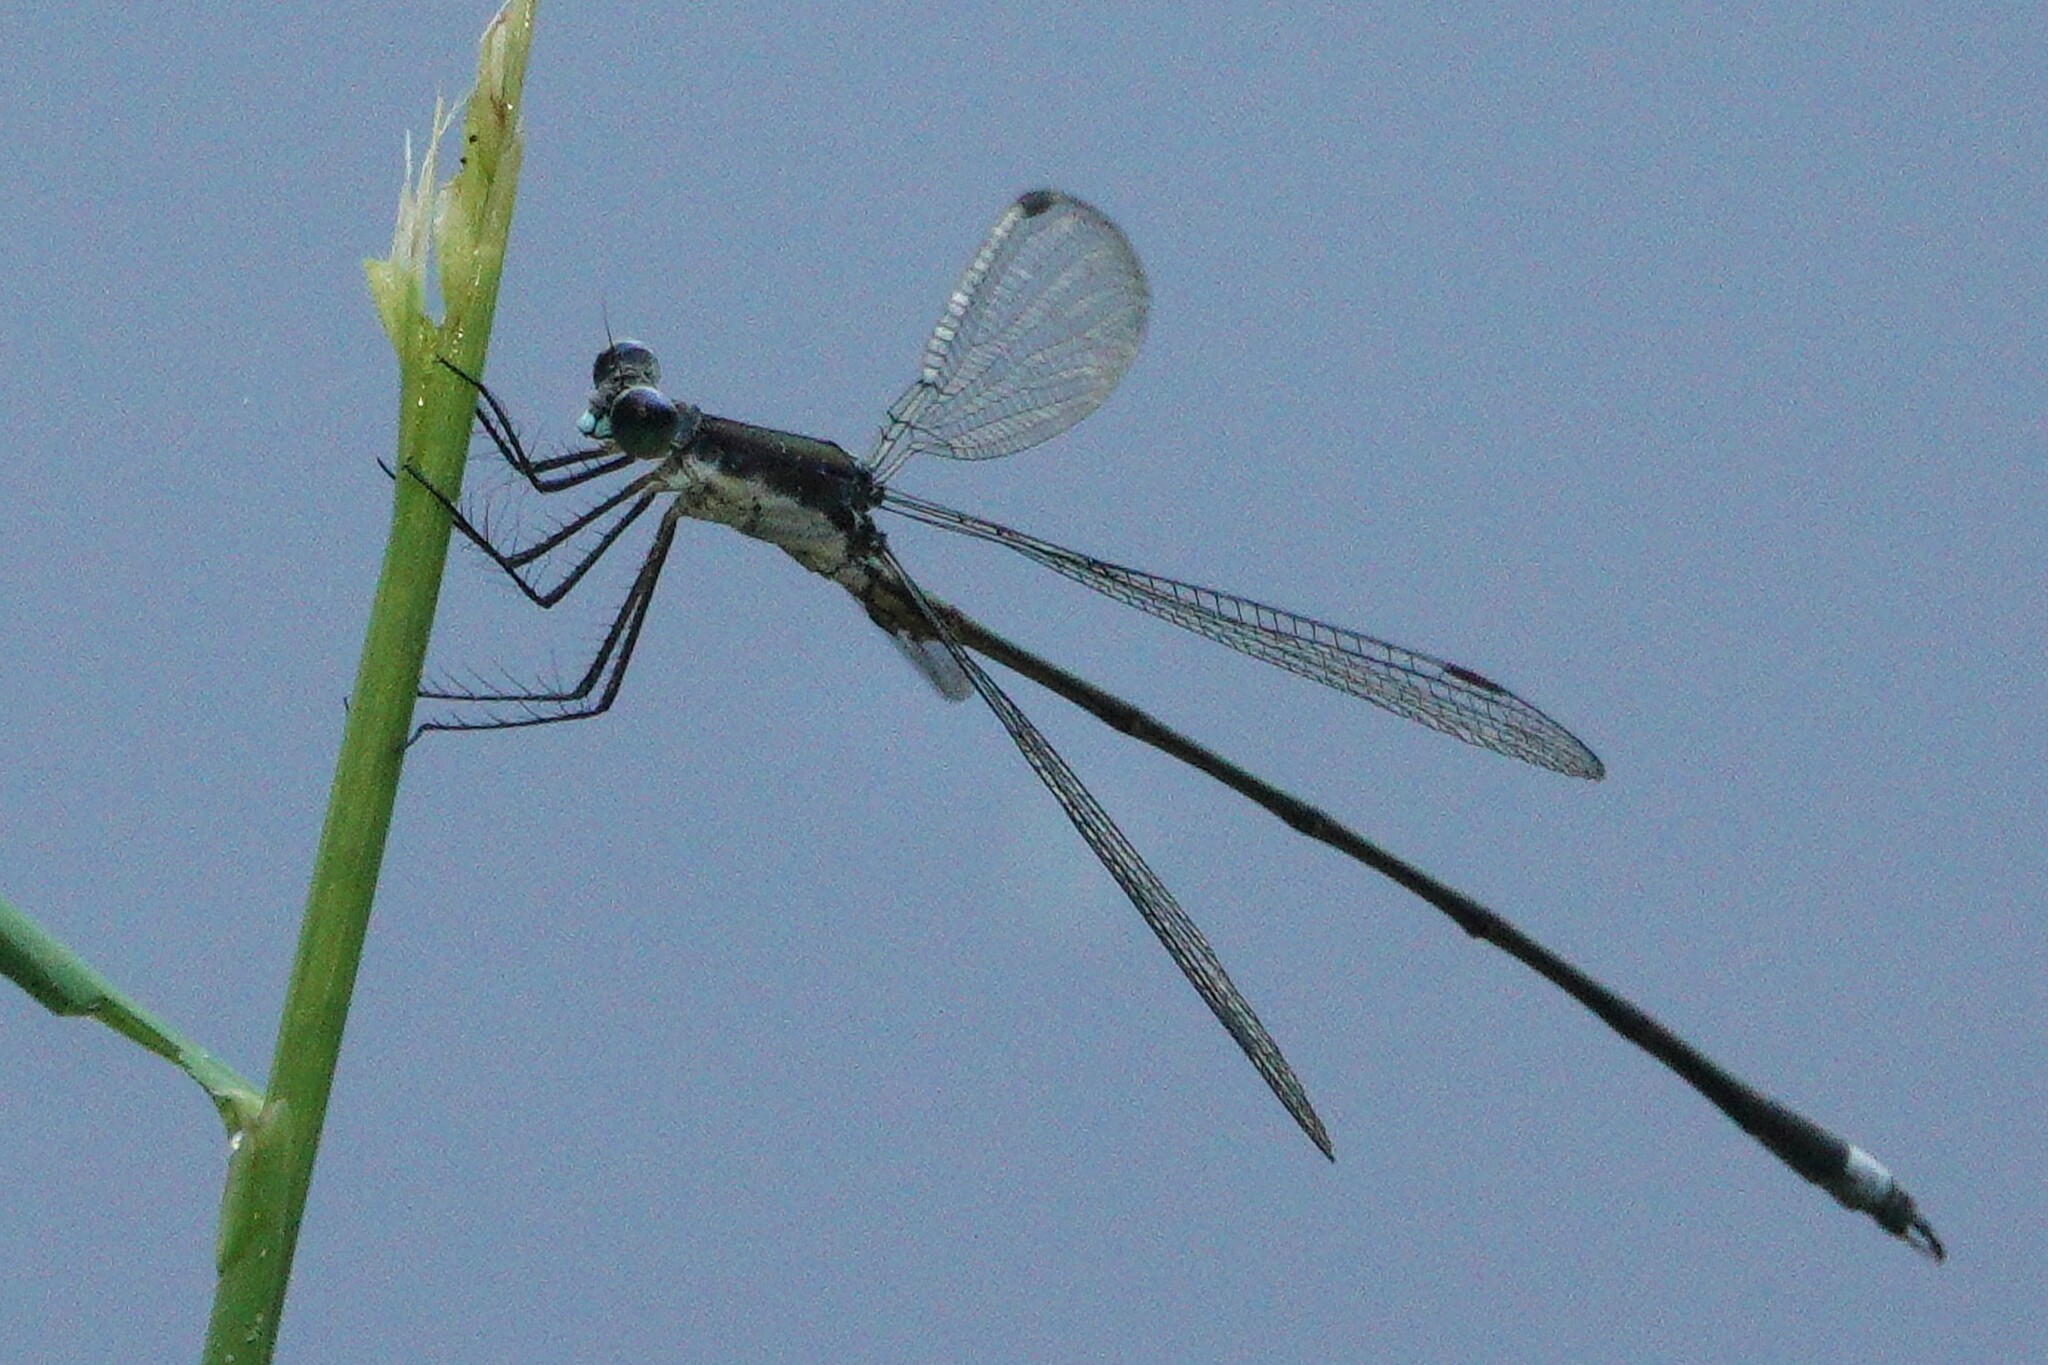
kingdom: Animalia
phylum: Arthropoda
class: Insecta
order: Odonata
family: Lestidae
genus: Lestes
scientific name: Lestes vigilax
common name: Swamp spreadwing
